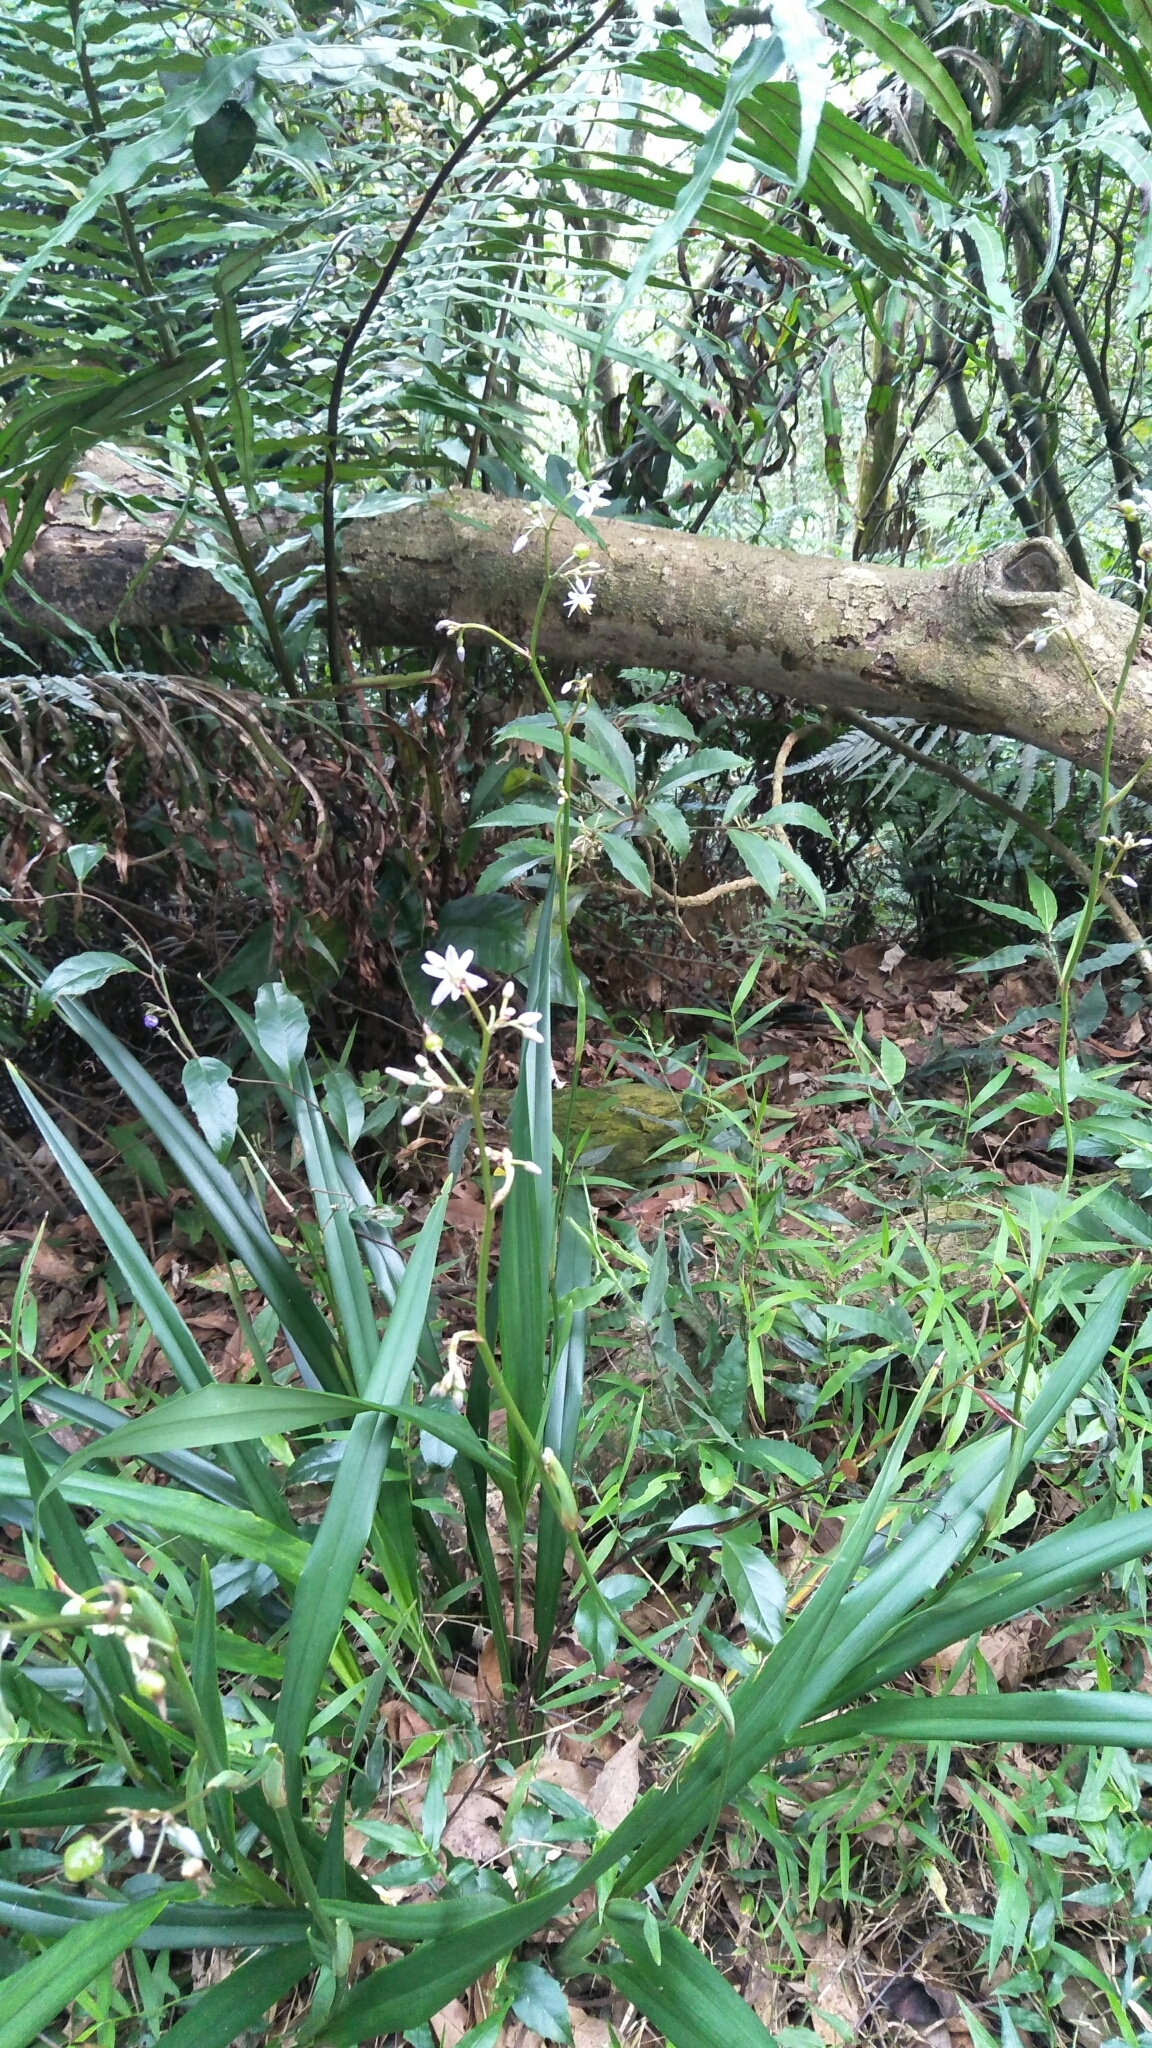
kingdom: Plantae
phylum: Tracheophyta
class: Liliopsida
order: Asparagales
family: Asphodelaceae
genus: Dianella
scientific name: Dianella ensifolia
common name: New zealand lilyplant
